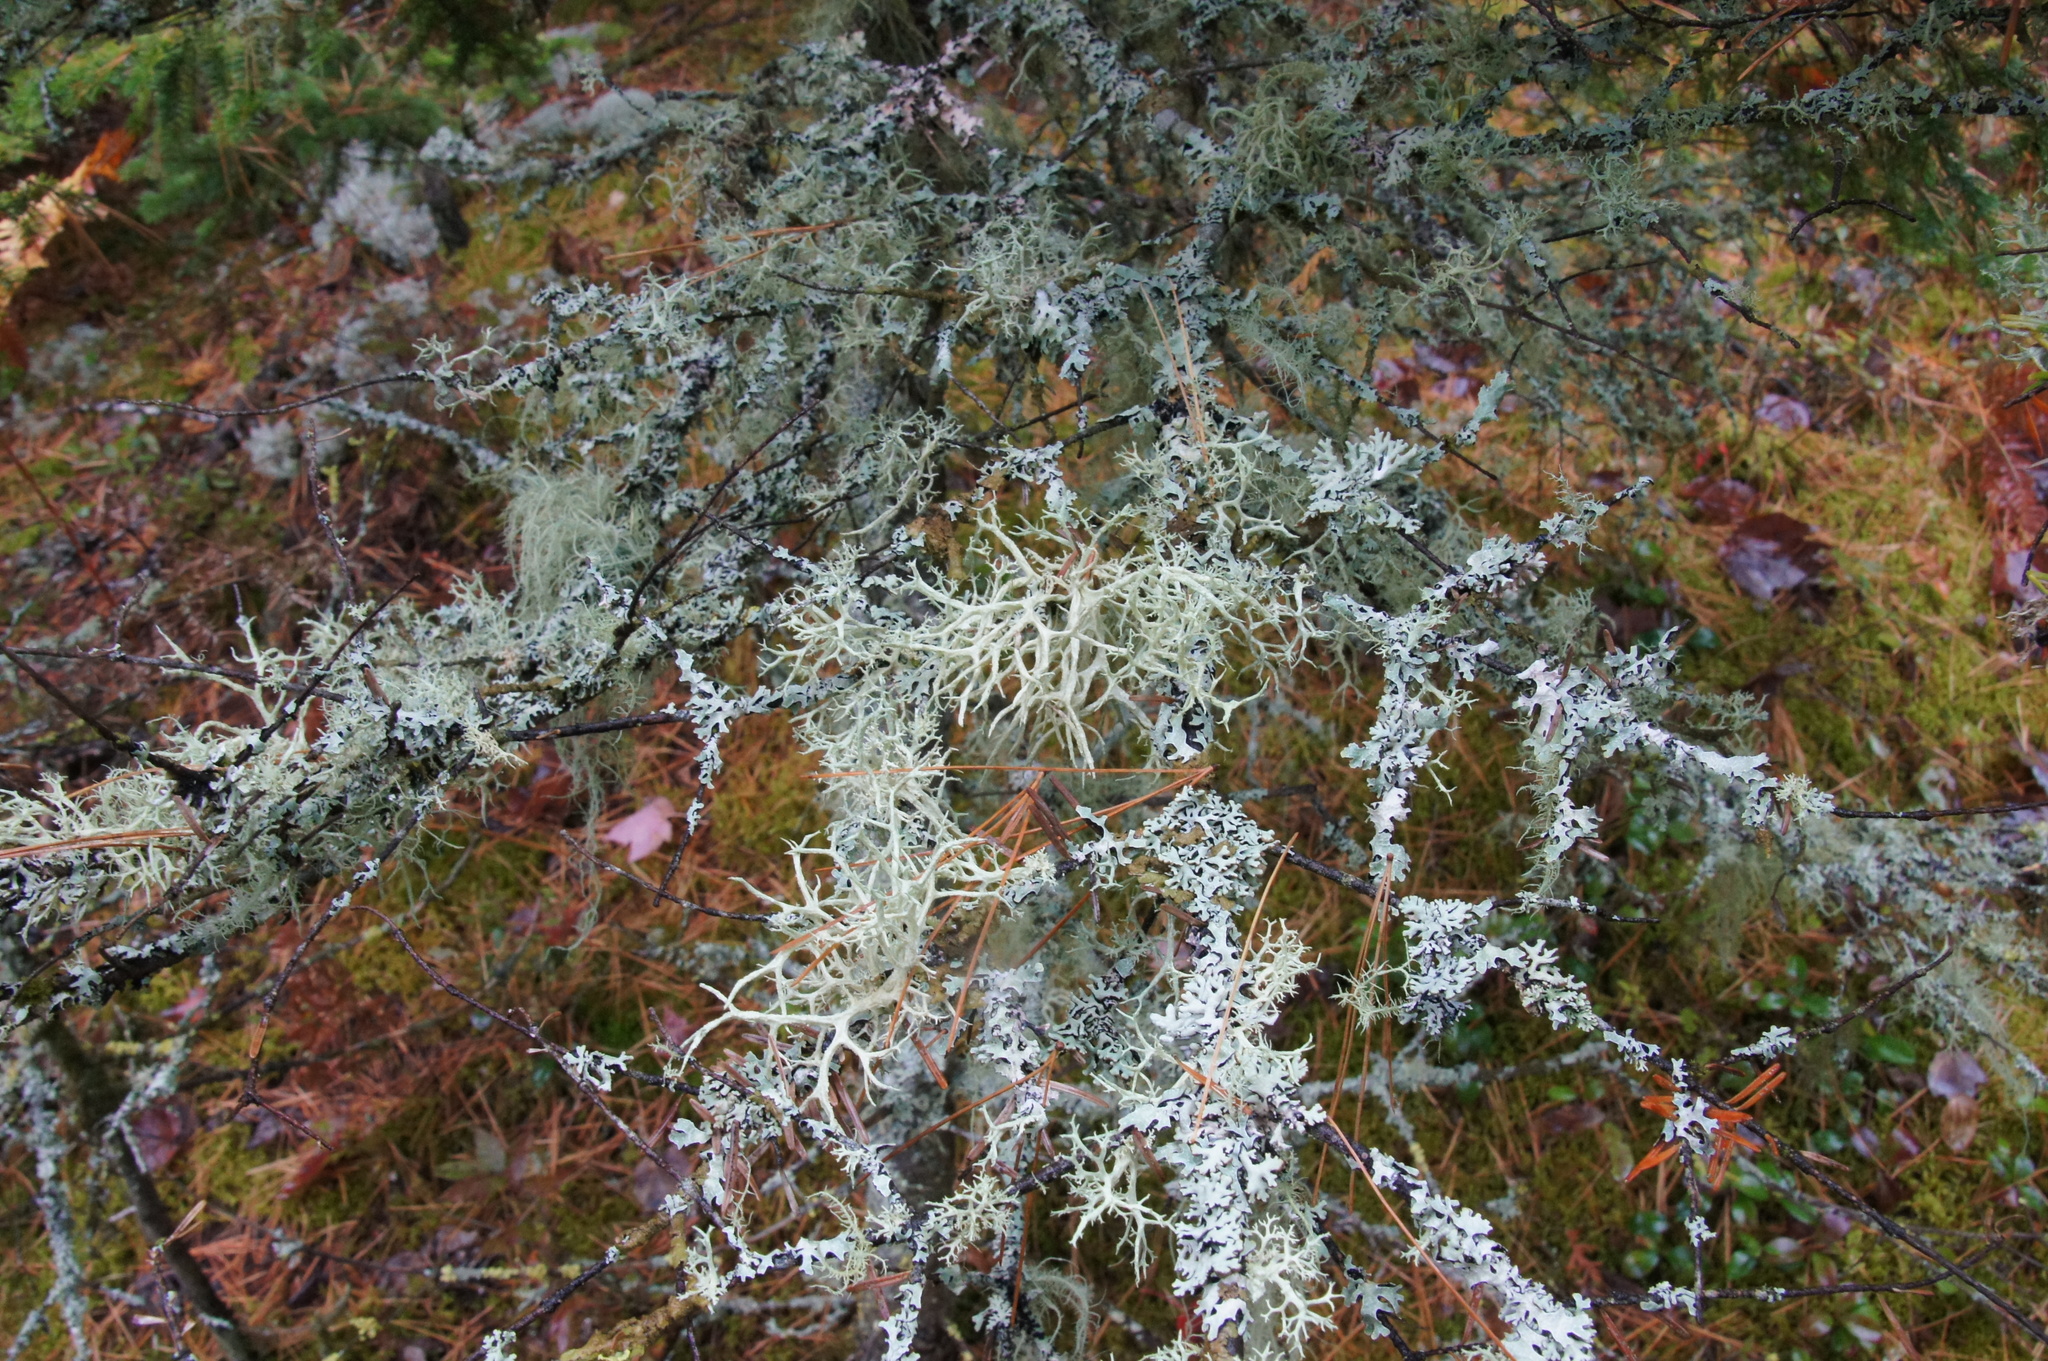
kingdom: Fungi
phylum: Ascomycota
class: Lecanoromycetes
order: Lecanorales
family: Parmeliaceae
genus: Evernia
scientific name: Evernia mesomorpha
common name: Boreal oak moss lichen
